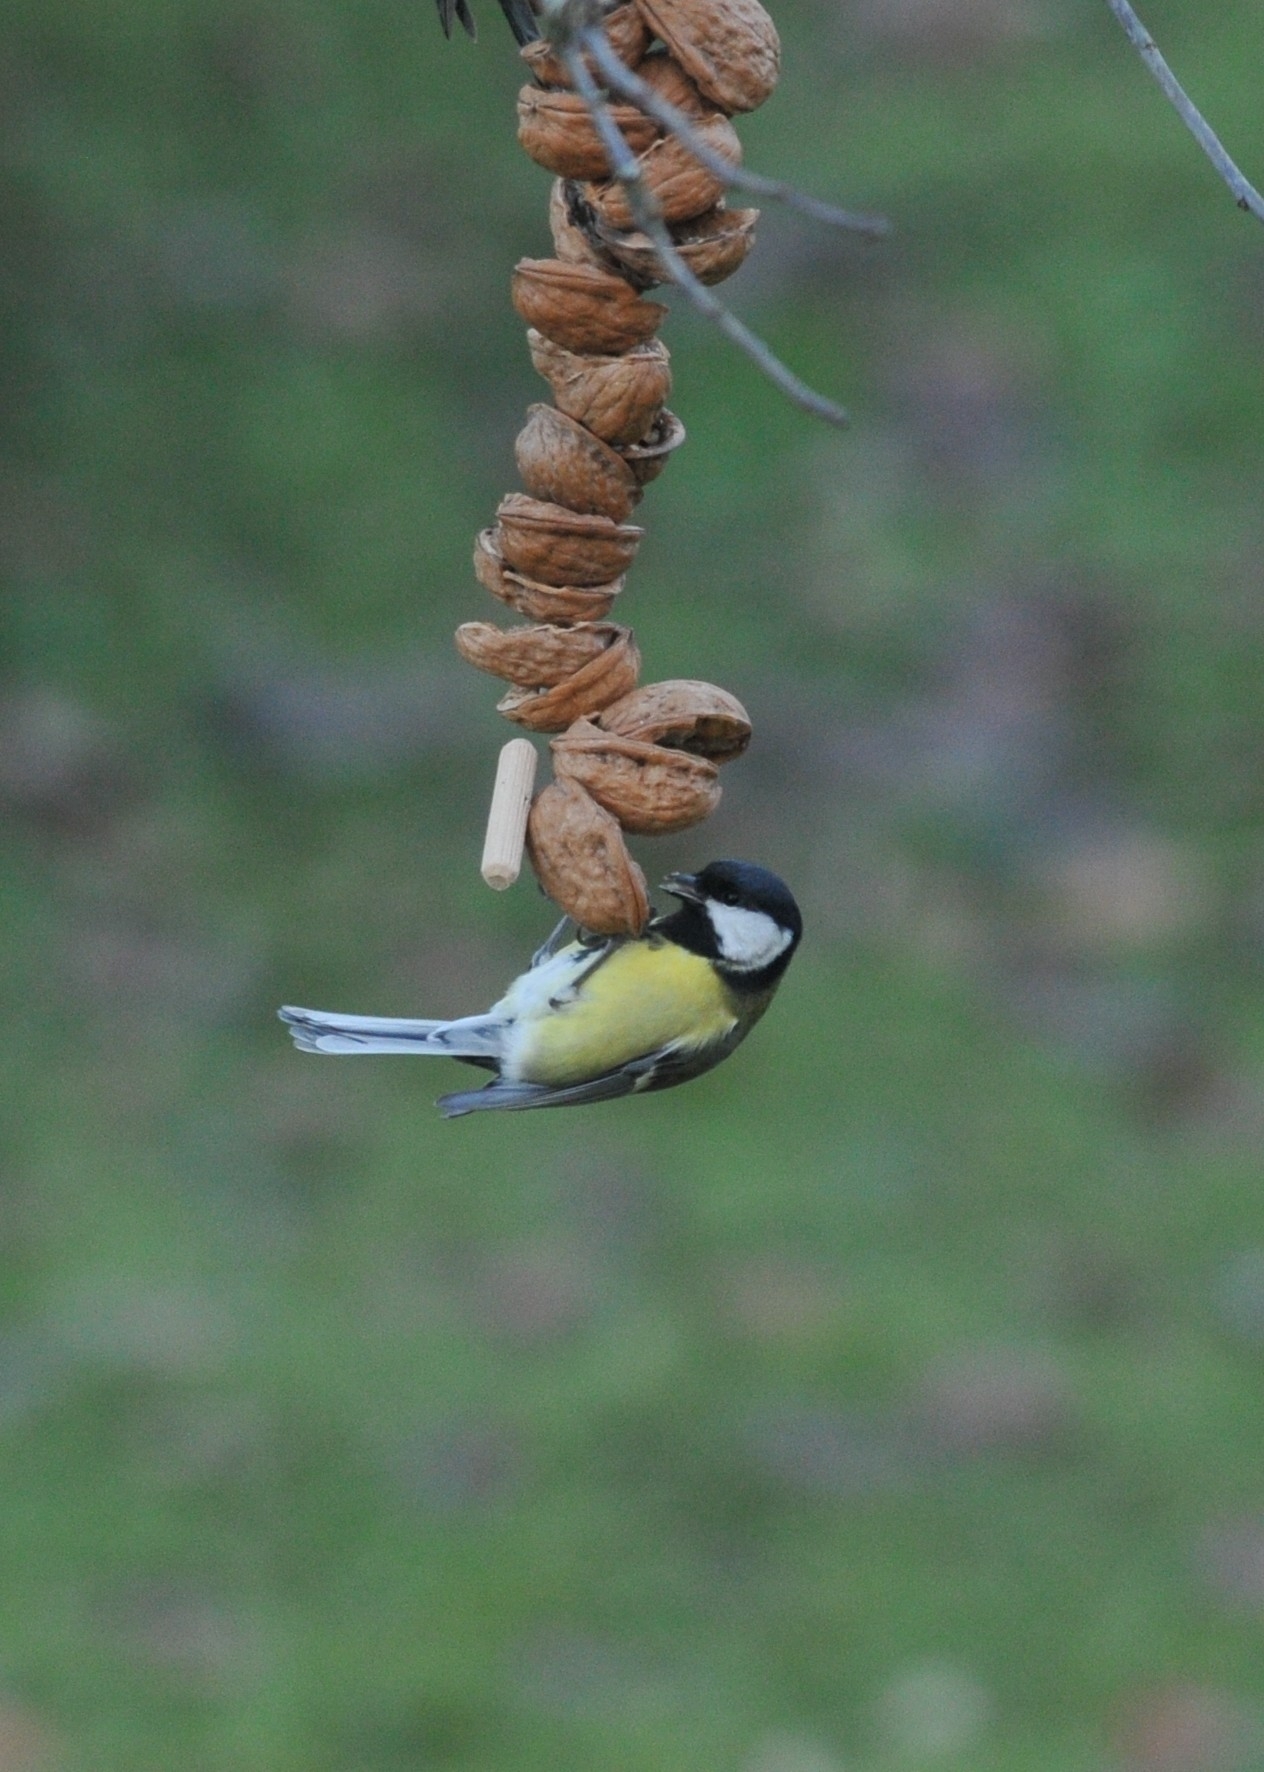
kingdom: Animalia
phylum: Chordata
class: Aves
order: Passeriformes
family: Paridae
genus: Parus
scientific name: Parus major
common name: Great tit
